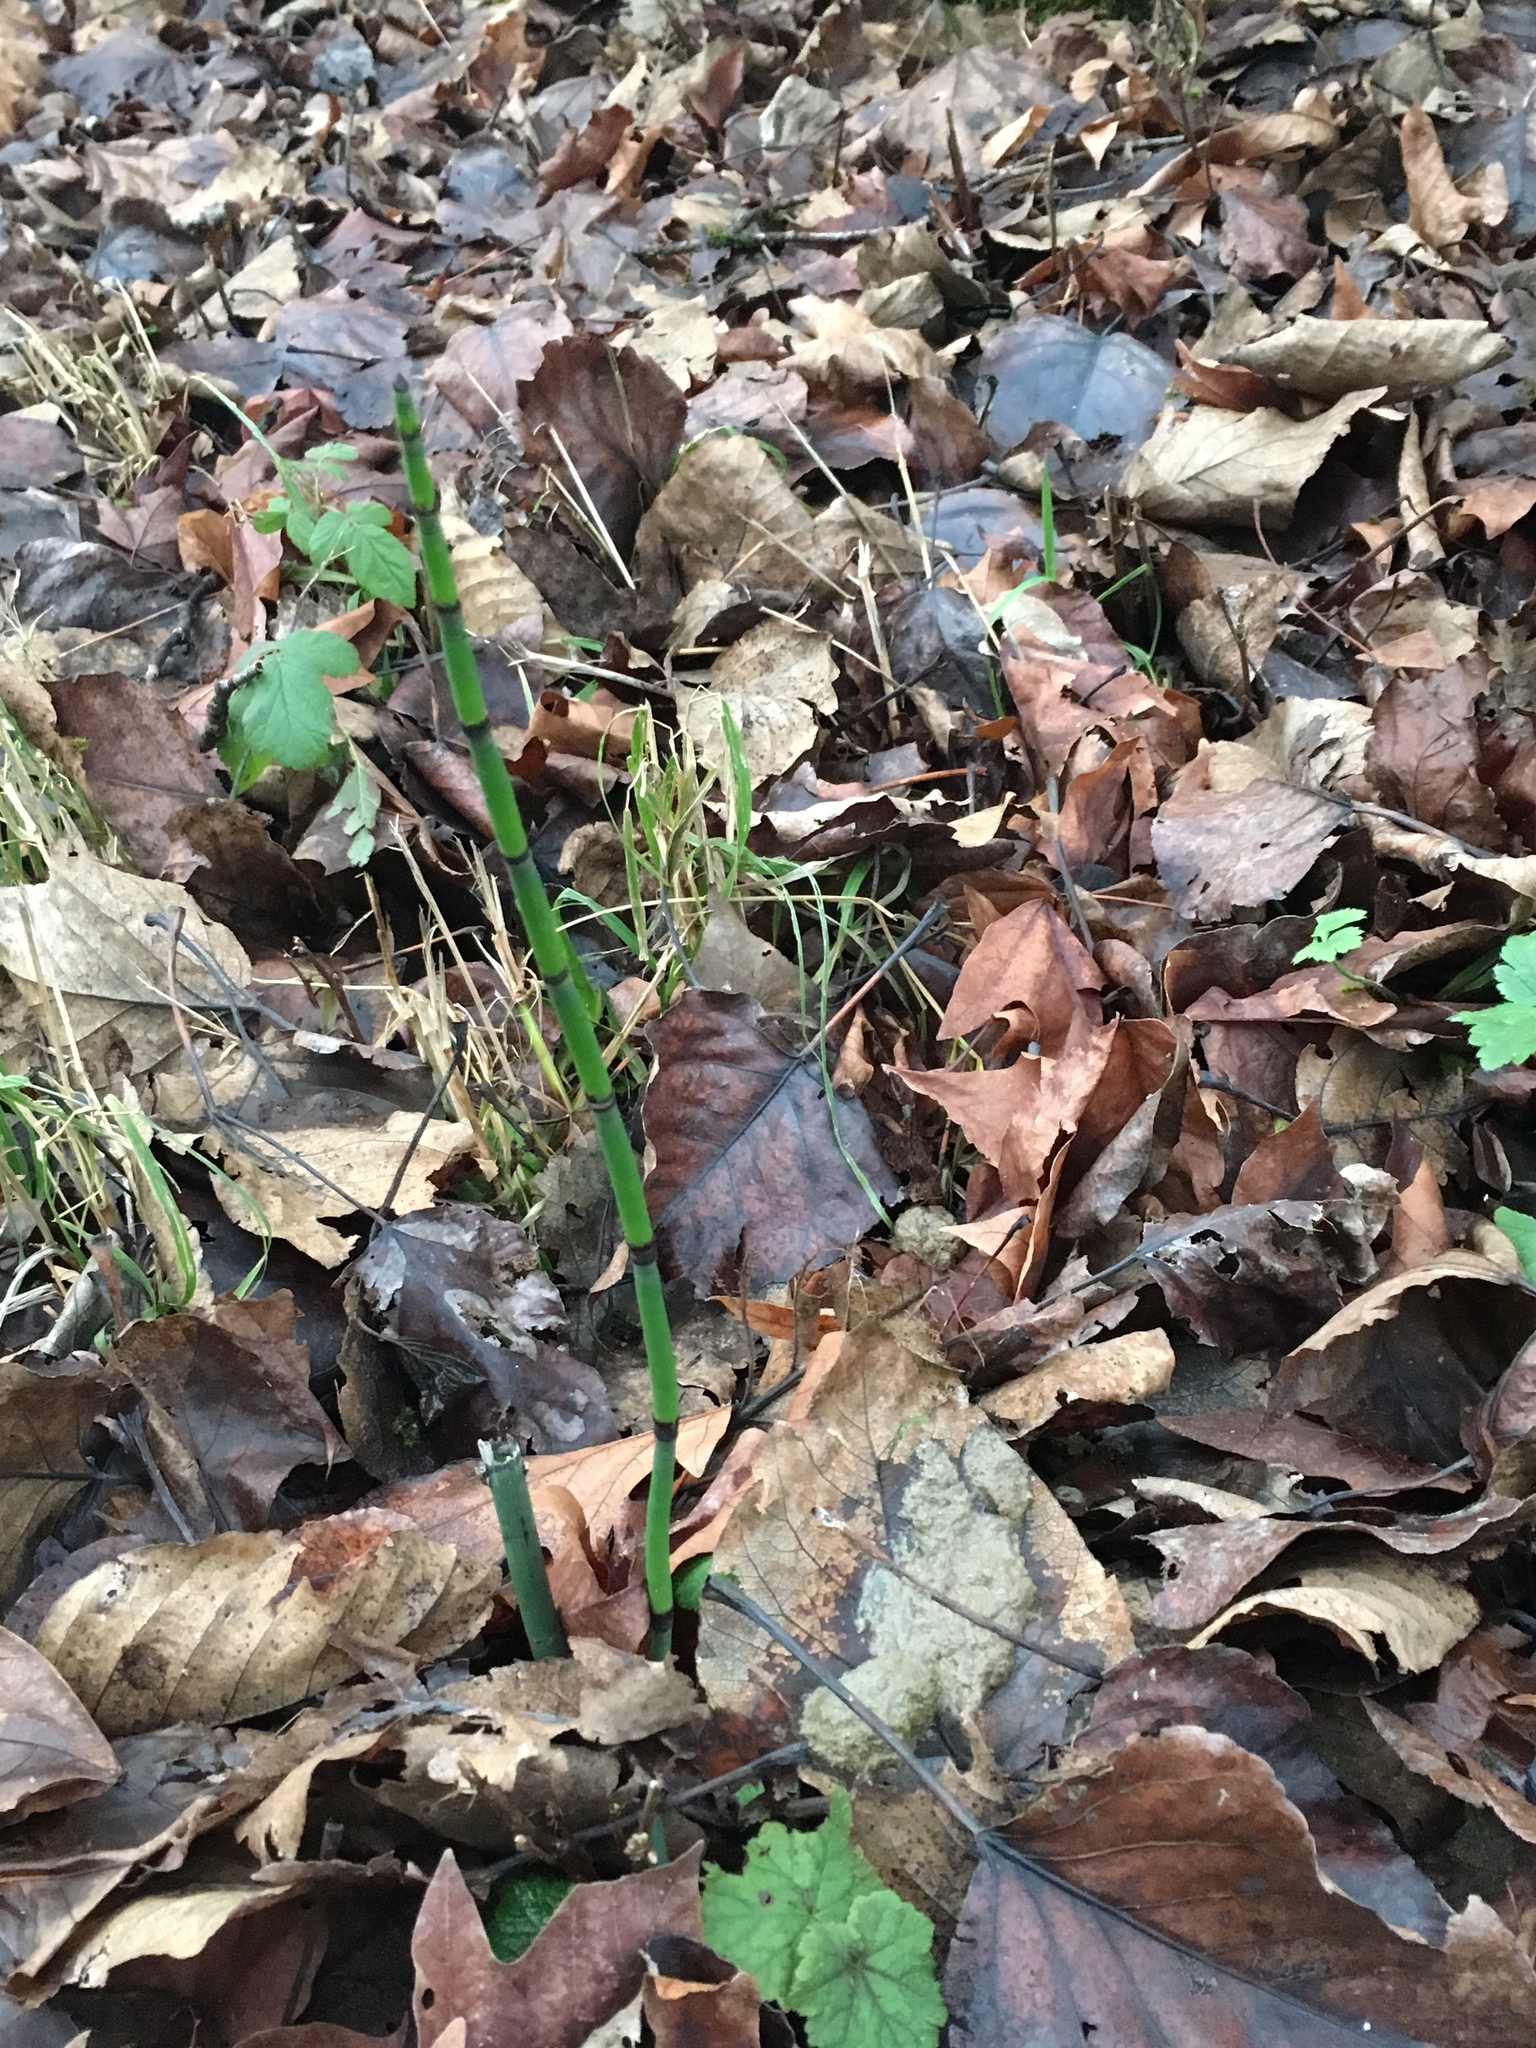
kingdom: Plantae
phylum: Tracheophyta
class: Polypodiopsida
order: Equisetales
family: Equisetaceae
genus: Equisetum
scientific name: Equisetum praealtum
